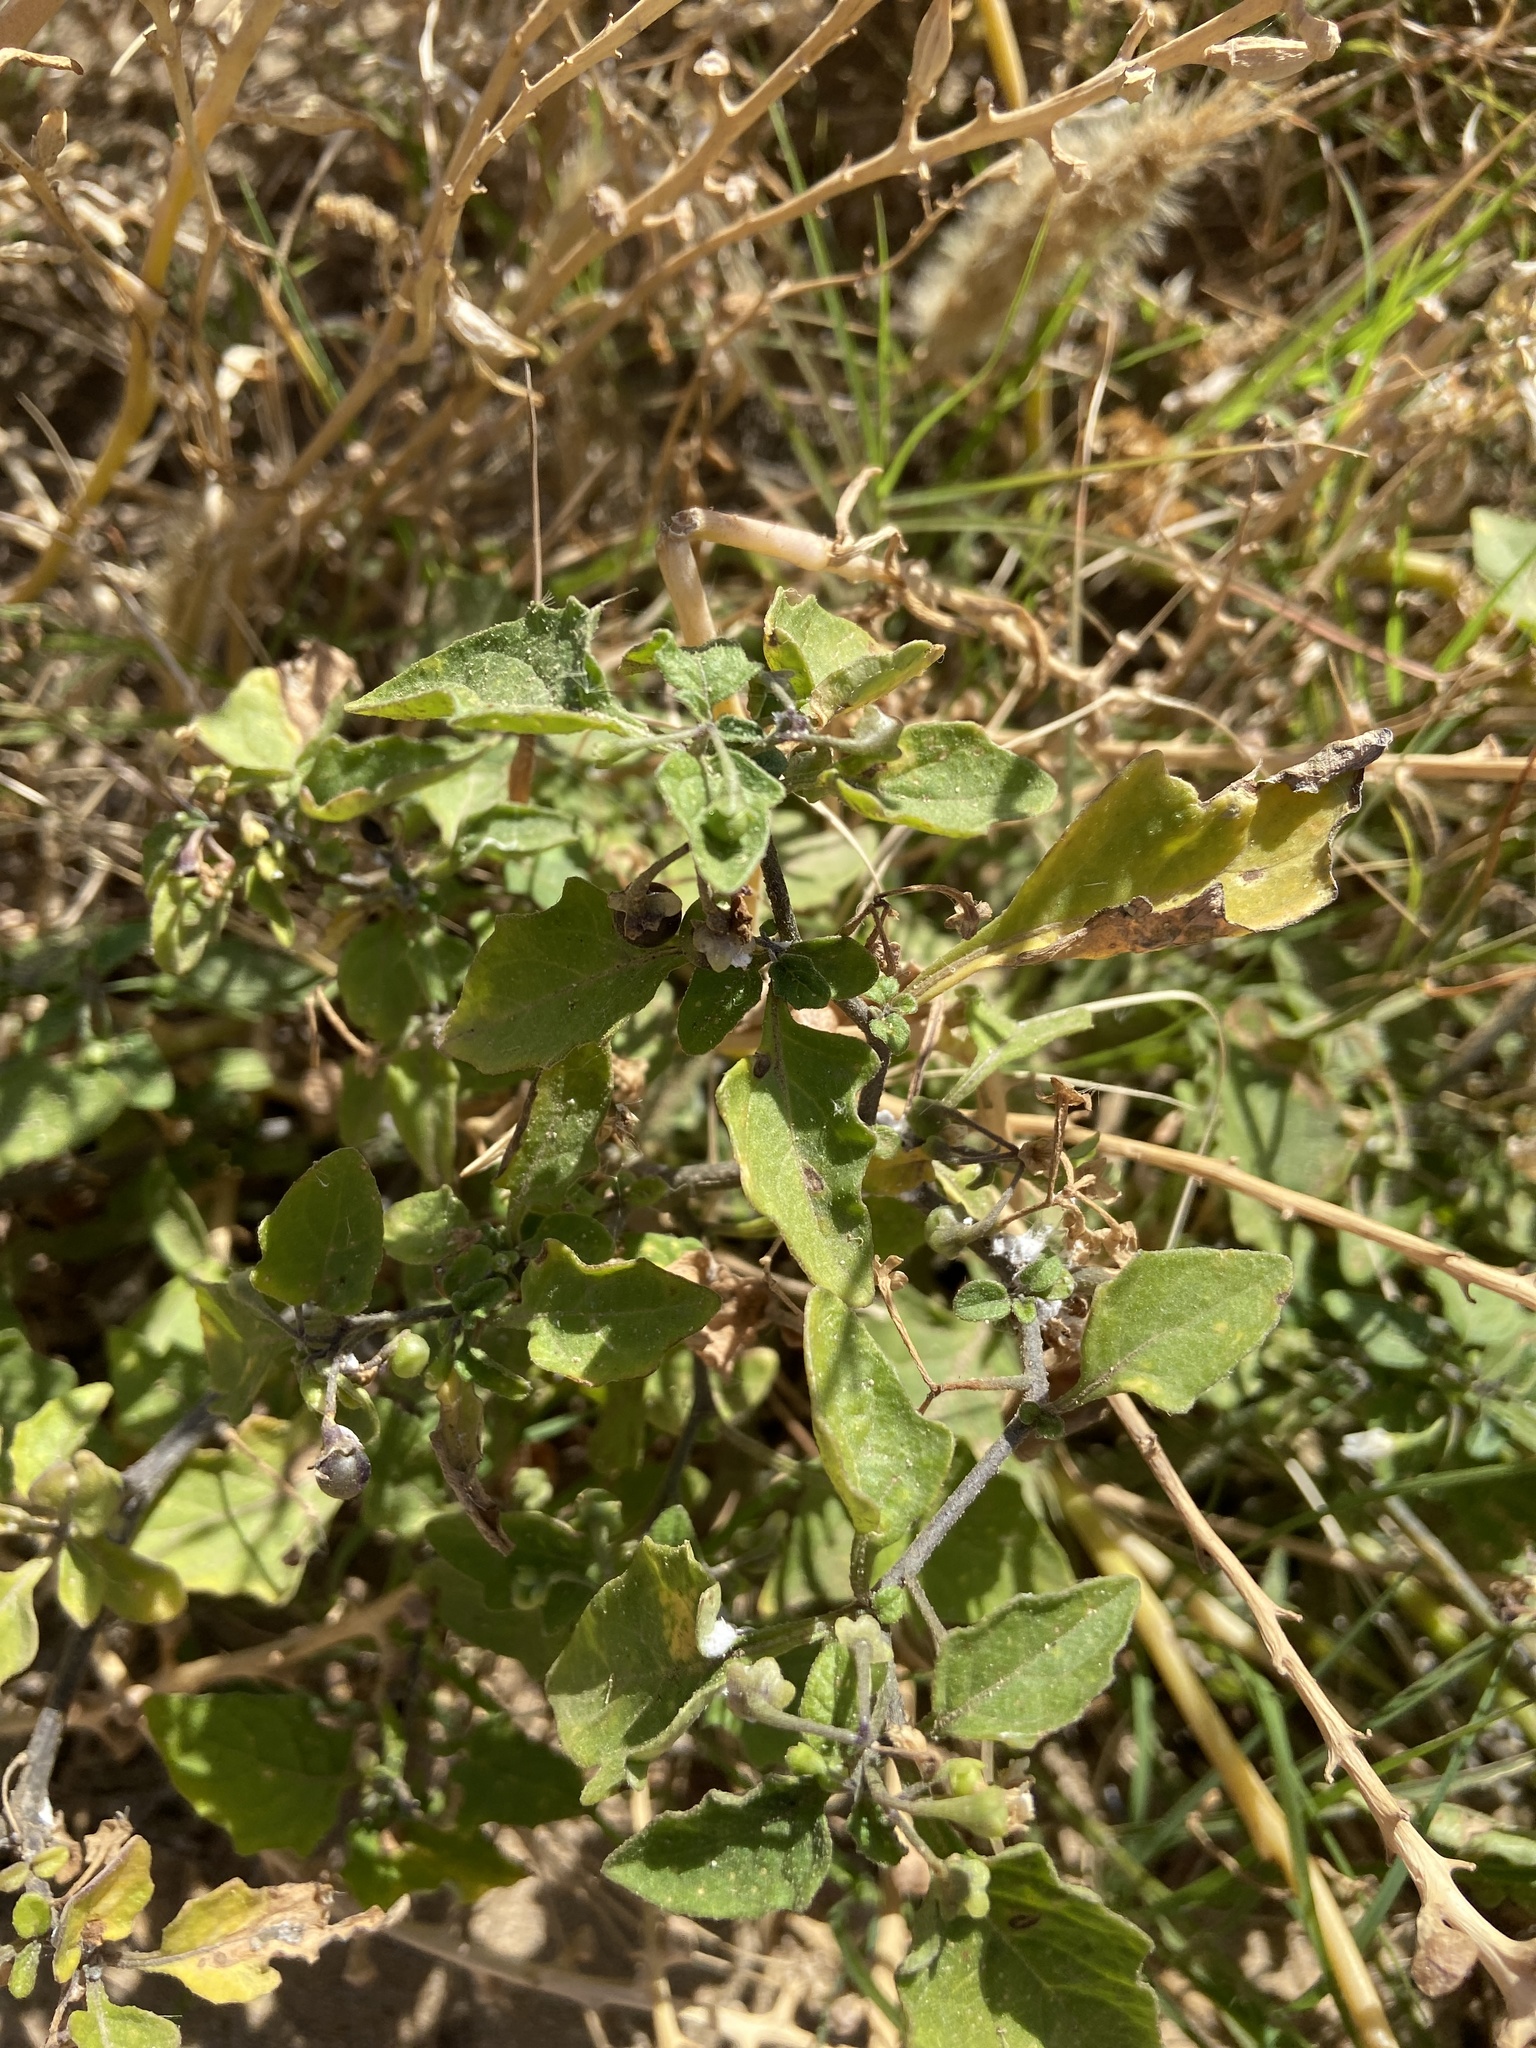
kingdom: Plantae
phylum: Tracheophyta
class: Magnoliopsida
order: Solanales
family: Solanaceae
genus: Solanum
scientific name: Solanum nigrum
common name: Black nightshade
